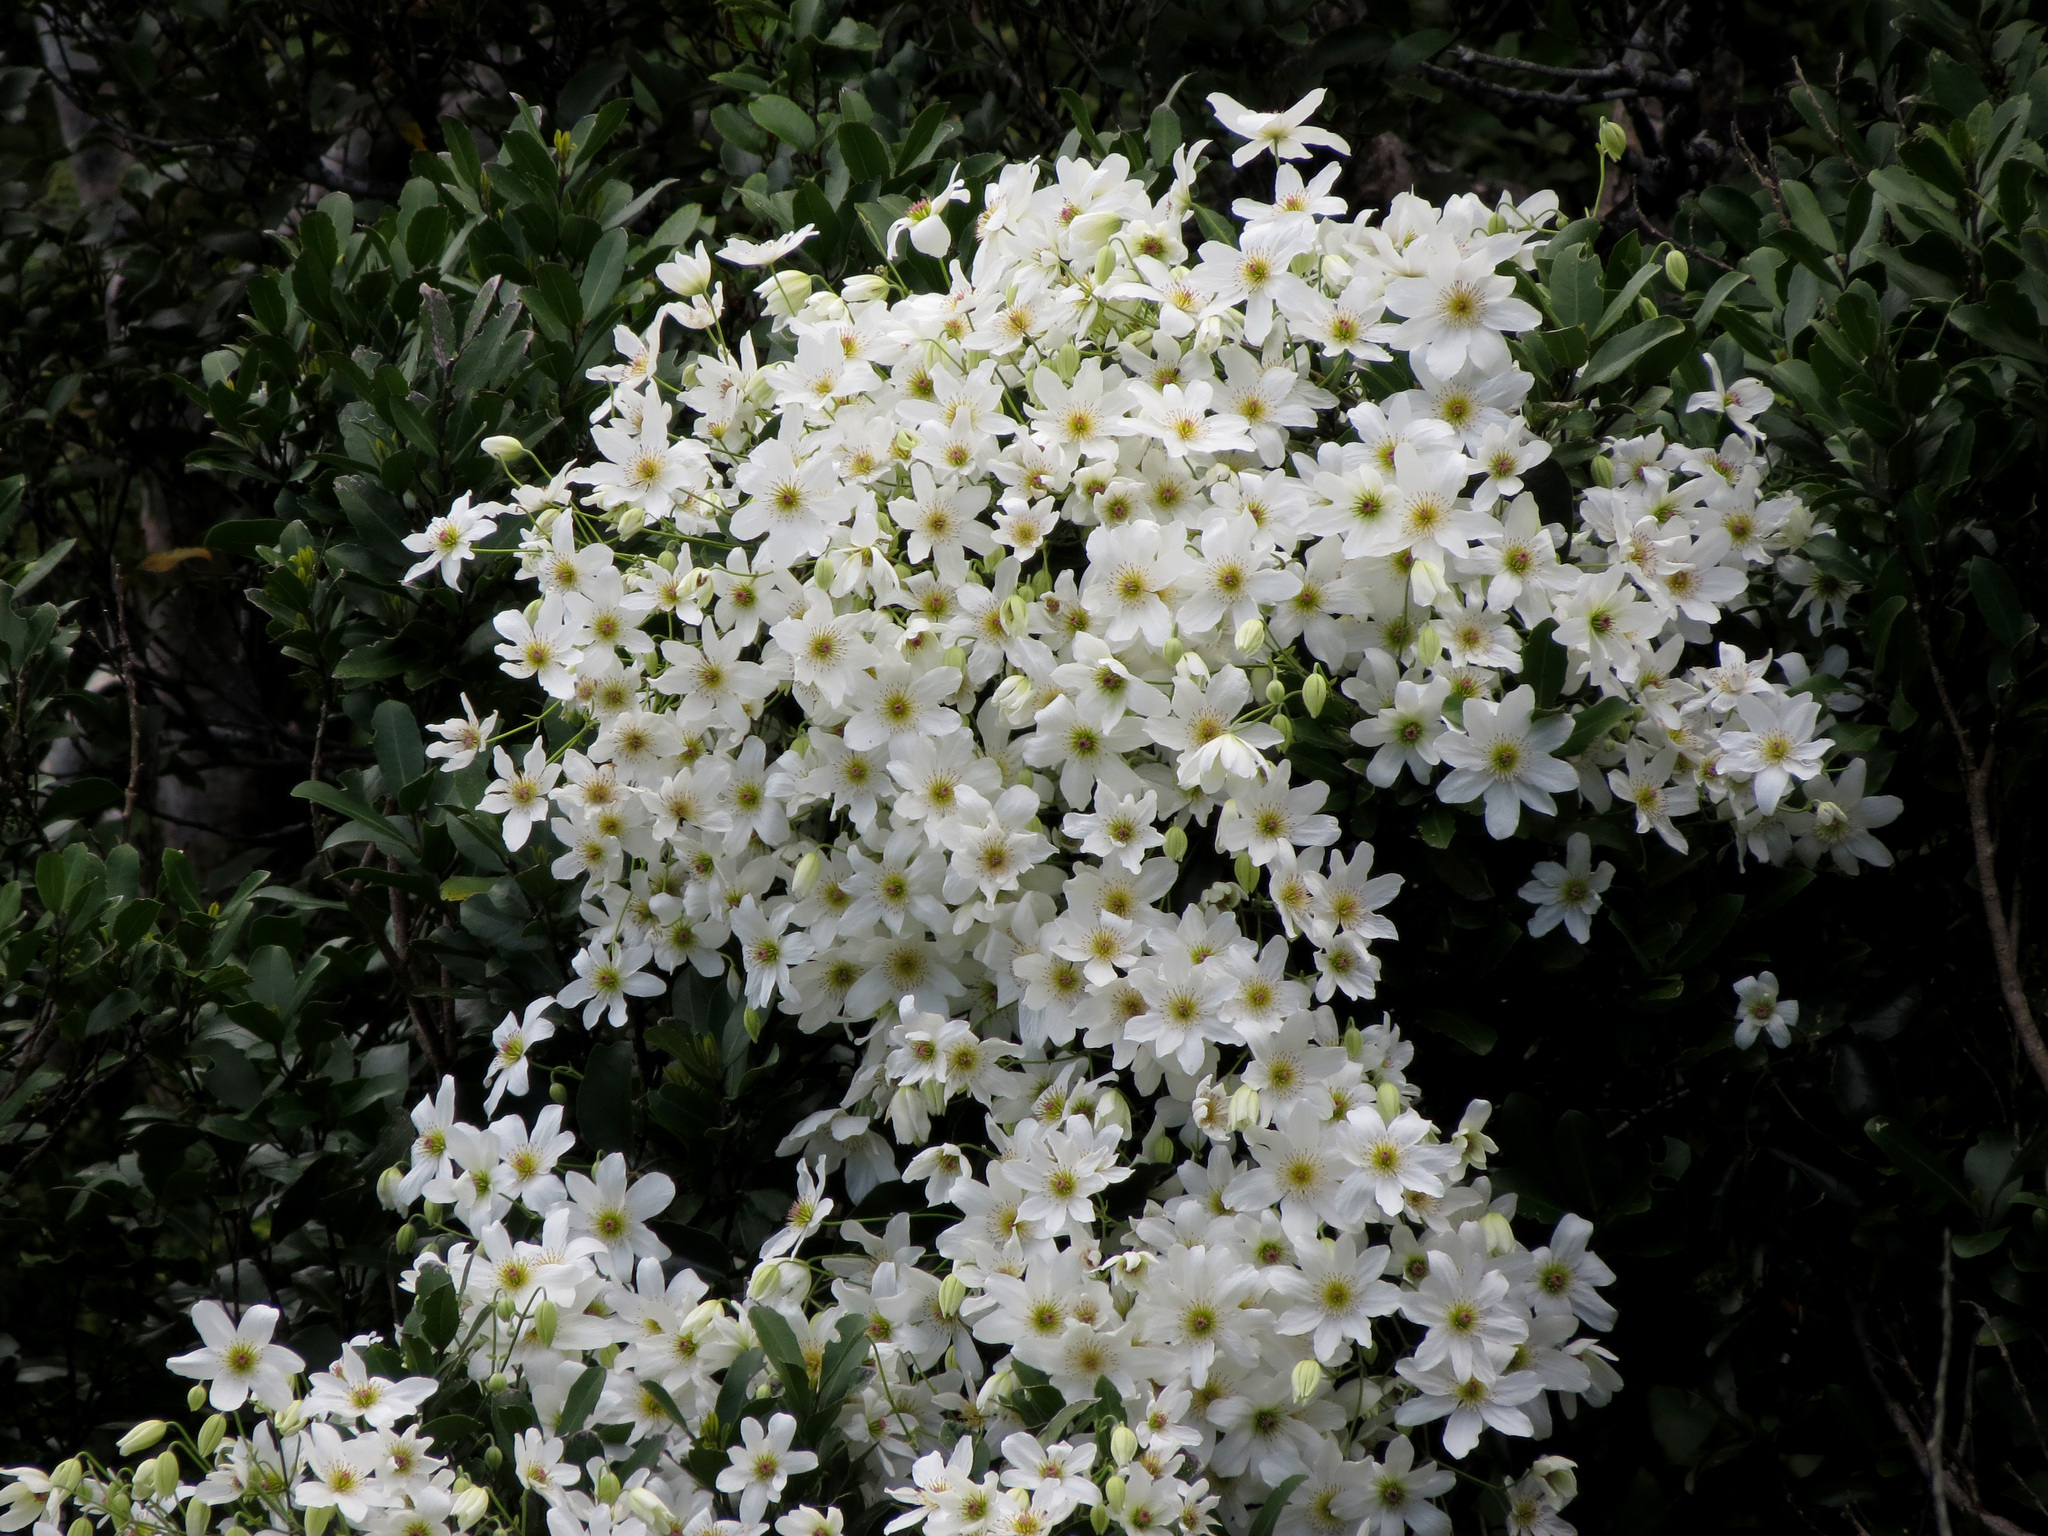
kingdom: Plantae
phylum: Tracheophyta
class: Magnoliopsida
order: Ranunculales
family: Ranunculaceae
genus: Clematis
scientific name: Clematis paniculata
